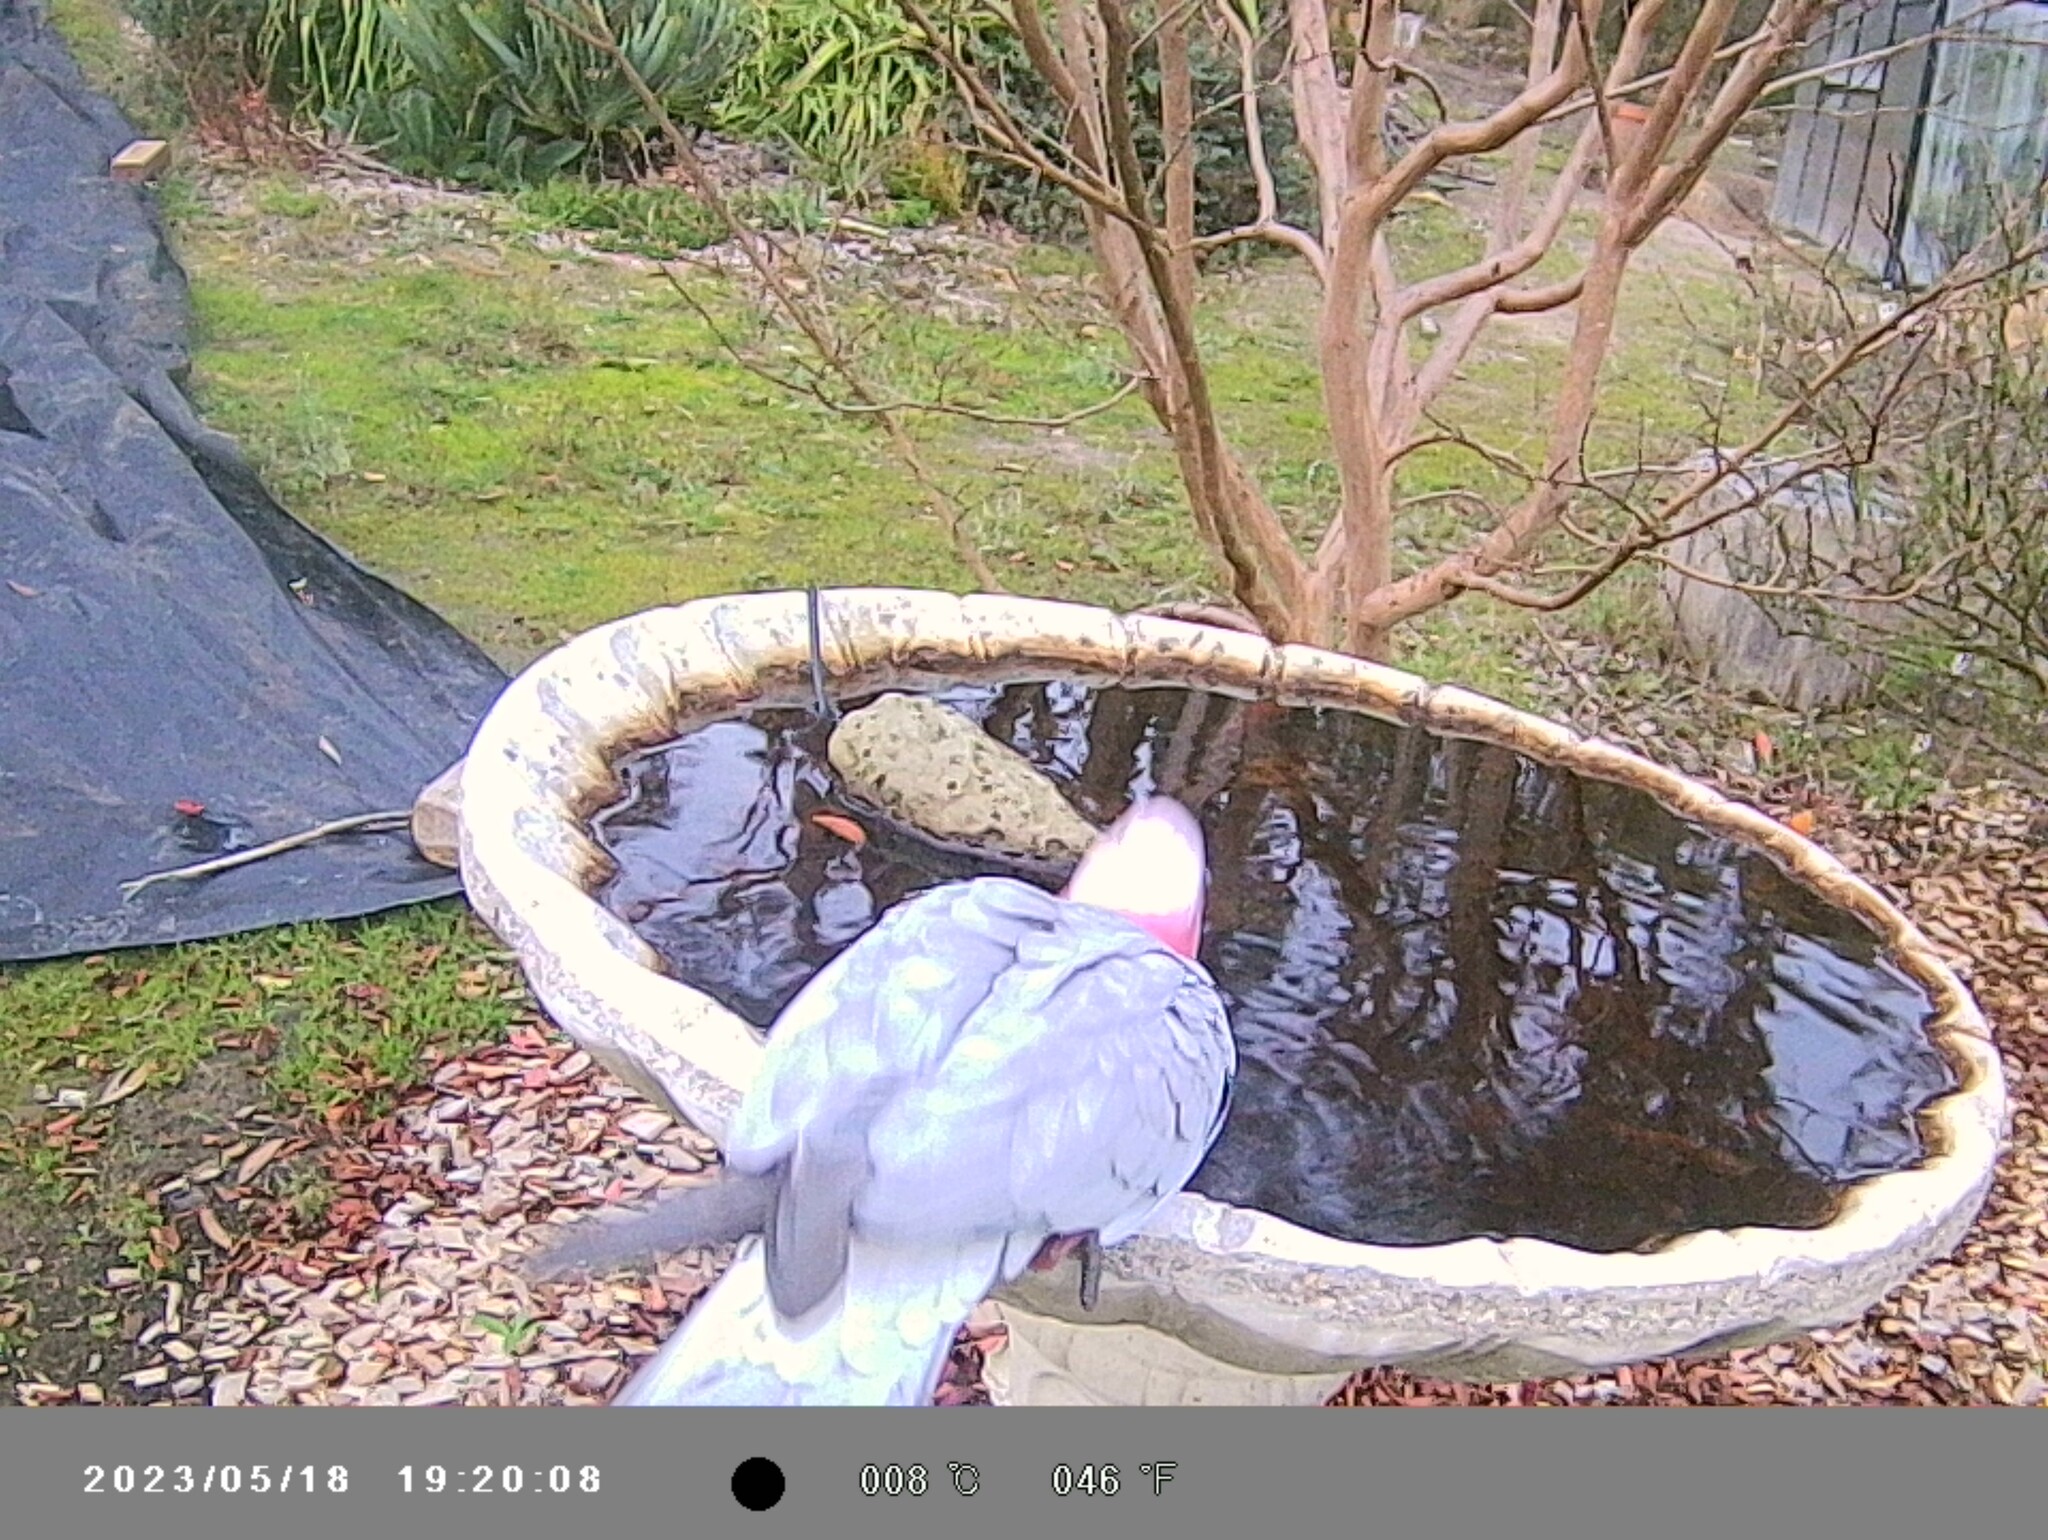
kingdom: Animalia
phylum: Chordata
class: Aves
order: Psittaciformes
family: Psittacidae
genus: Eolophus
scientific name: Eolophus roseicapilla
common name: Galah
